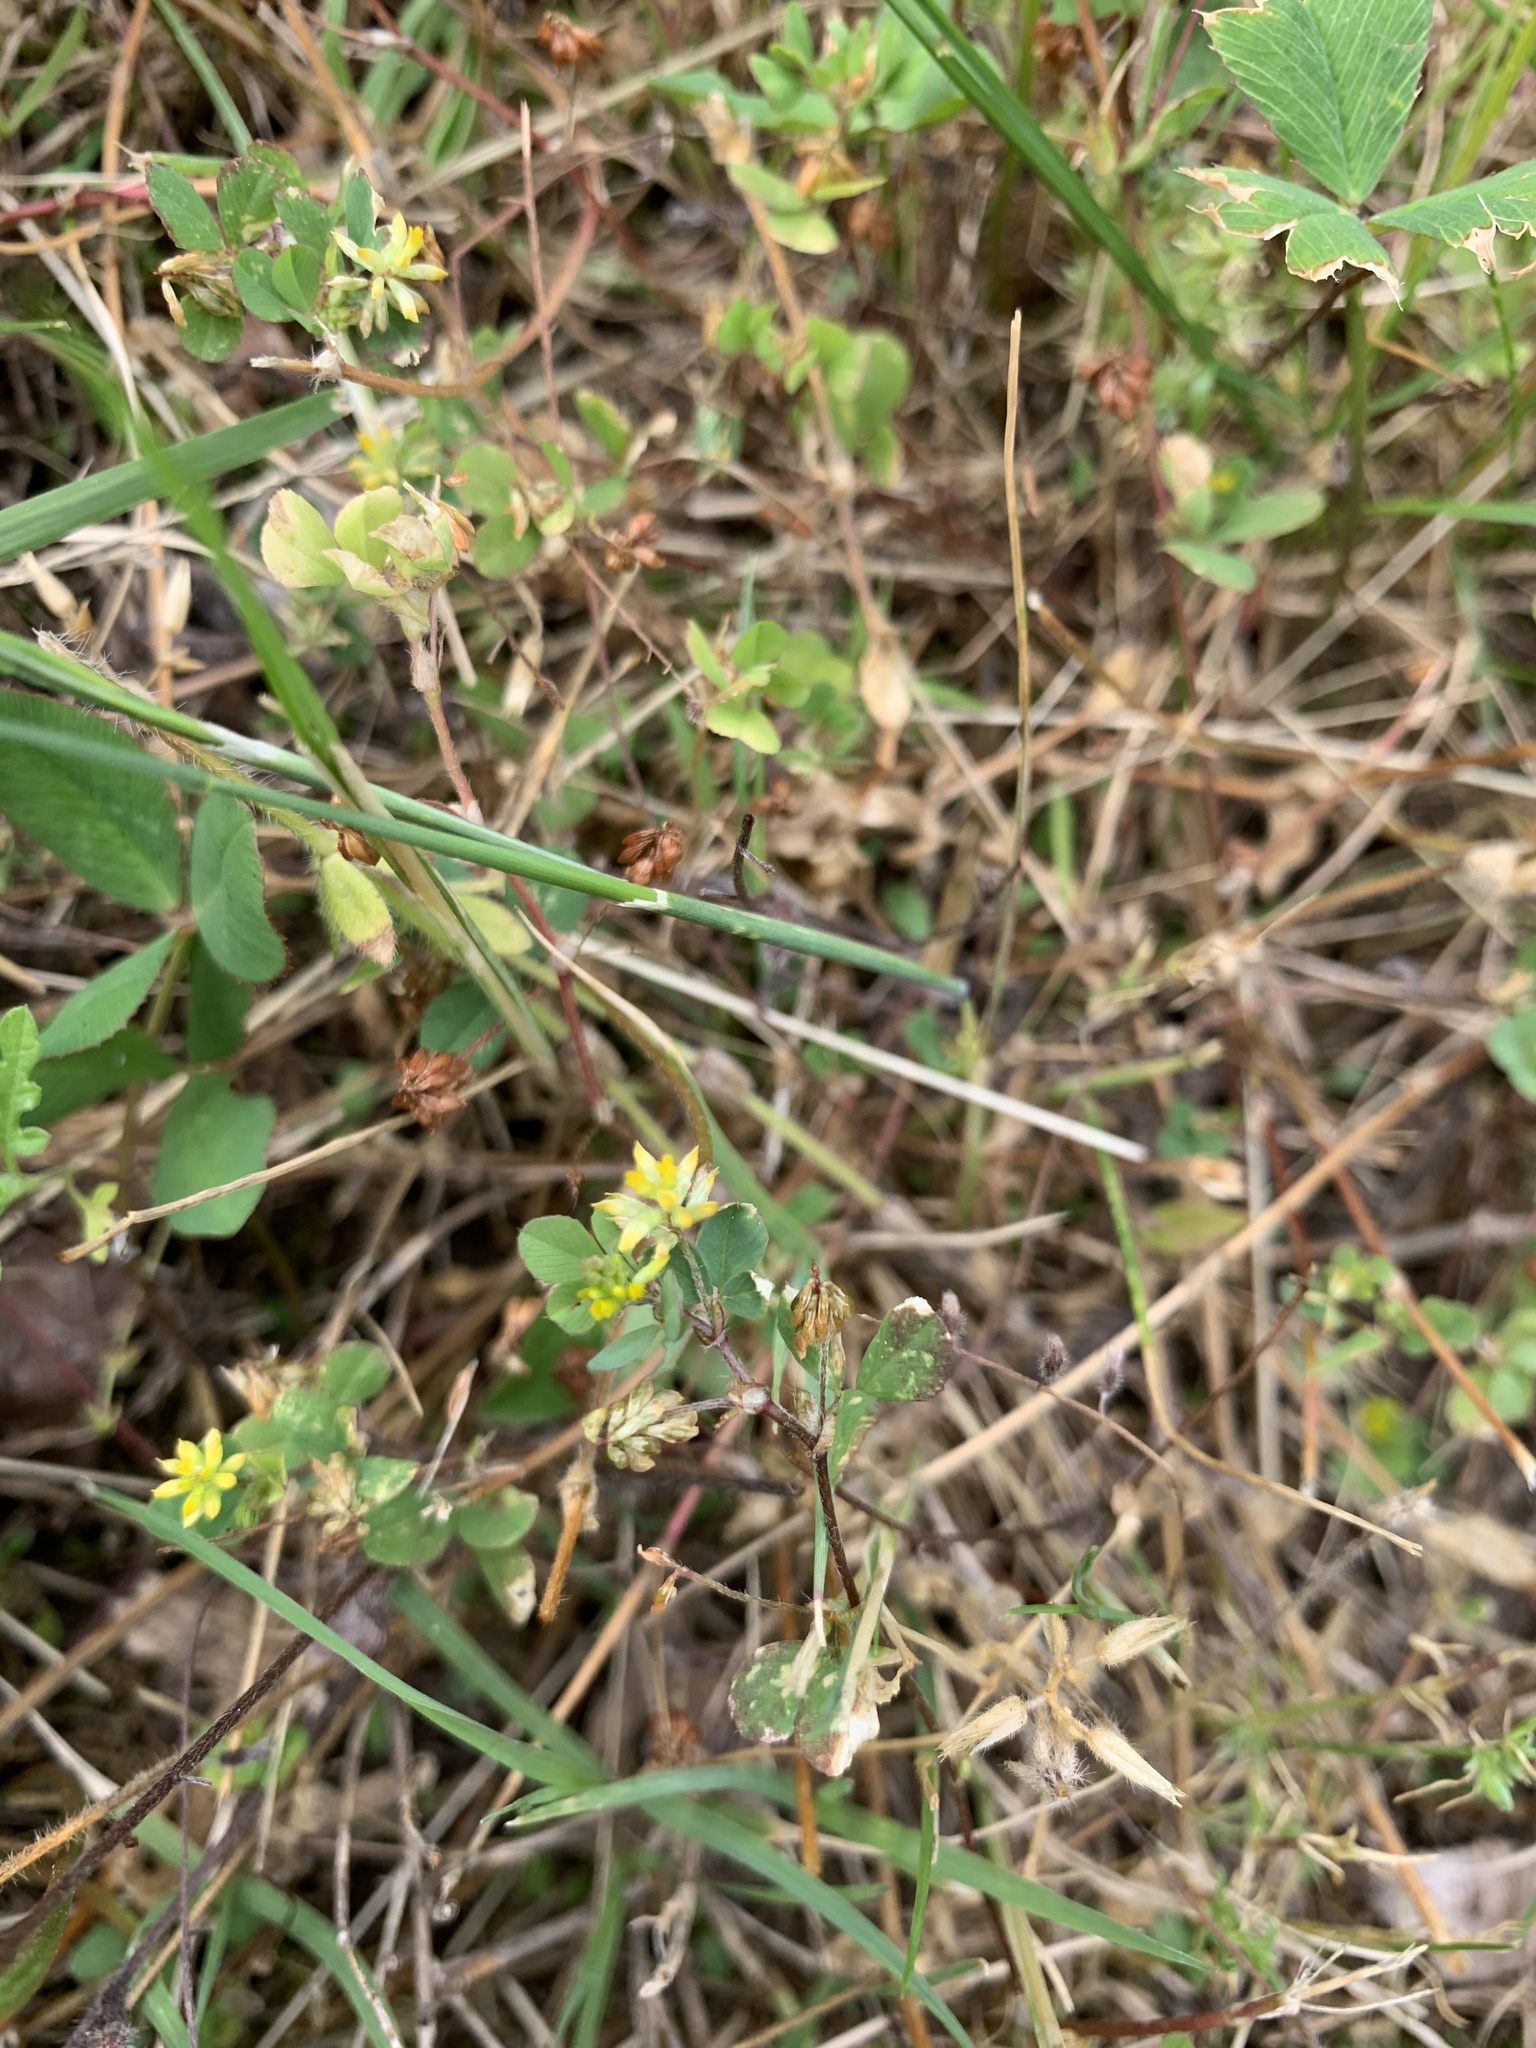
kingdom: Plantae
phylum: Tracheophyta
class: Magnoliopsida
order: Fabales
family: Fabaceae
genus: Trifolium
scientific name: Trifolium dubium
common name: Suckling clover
